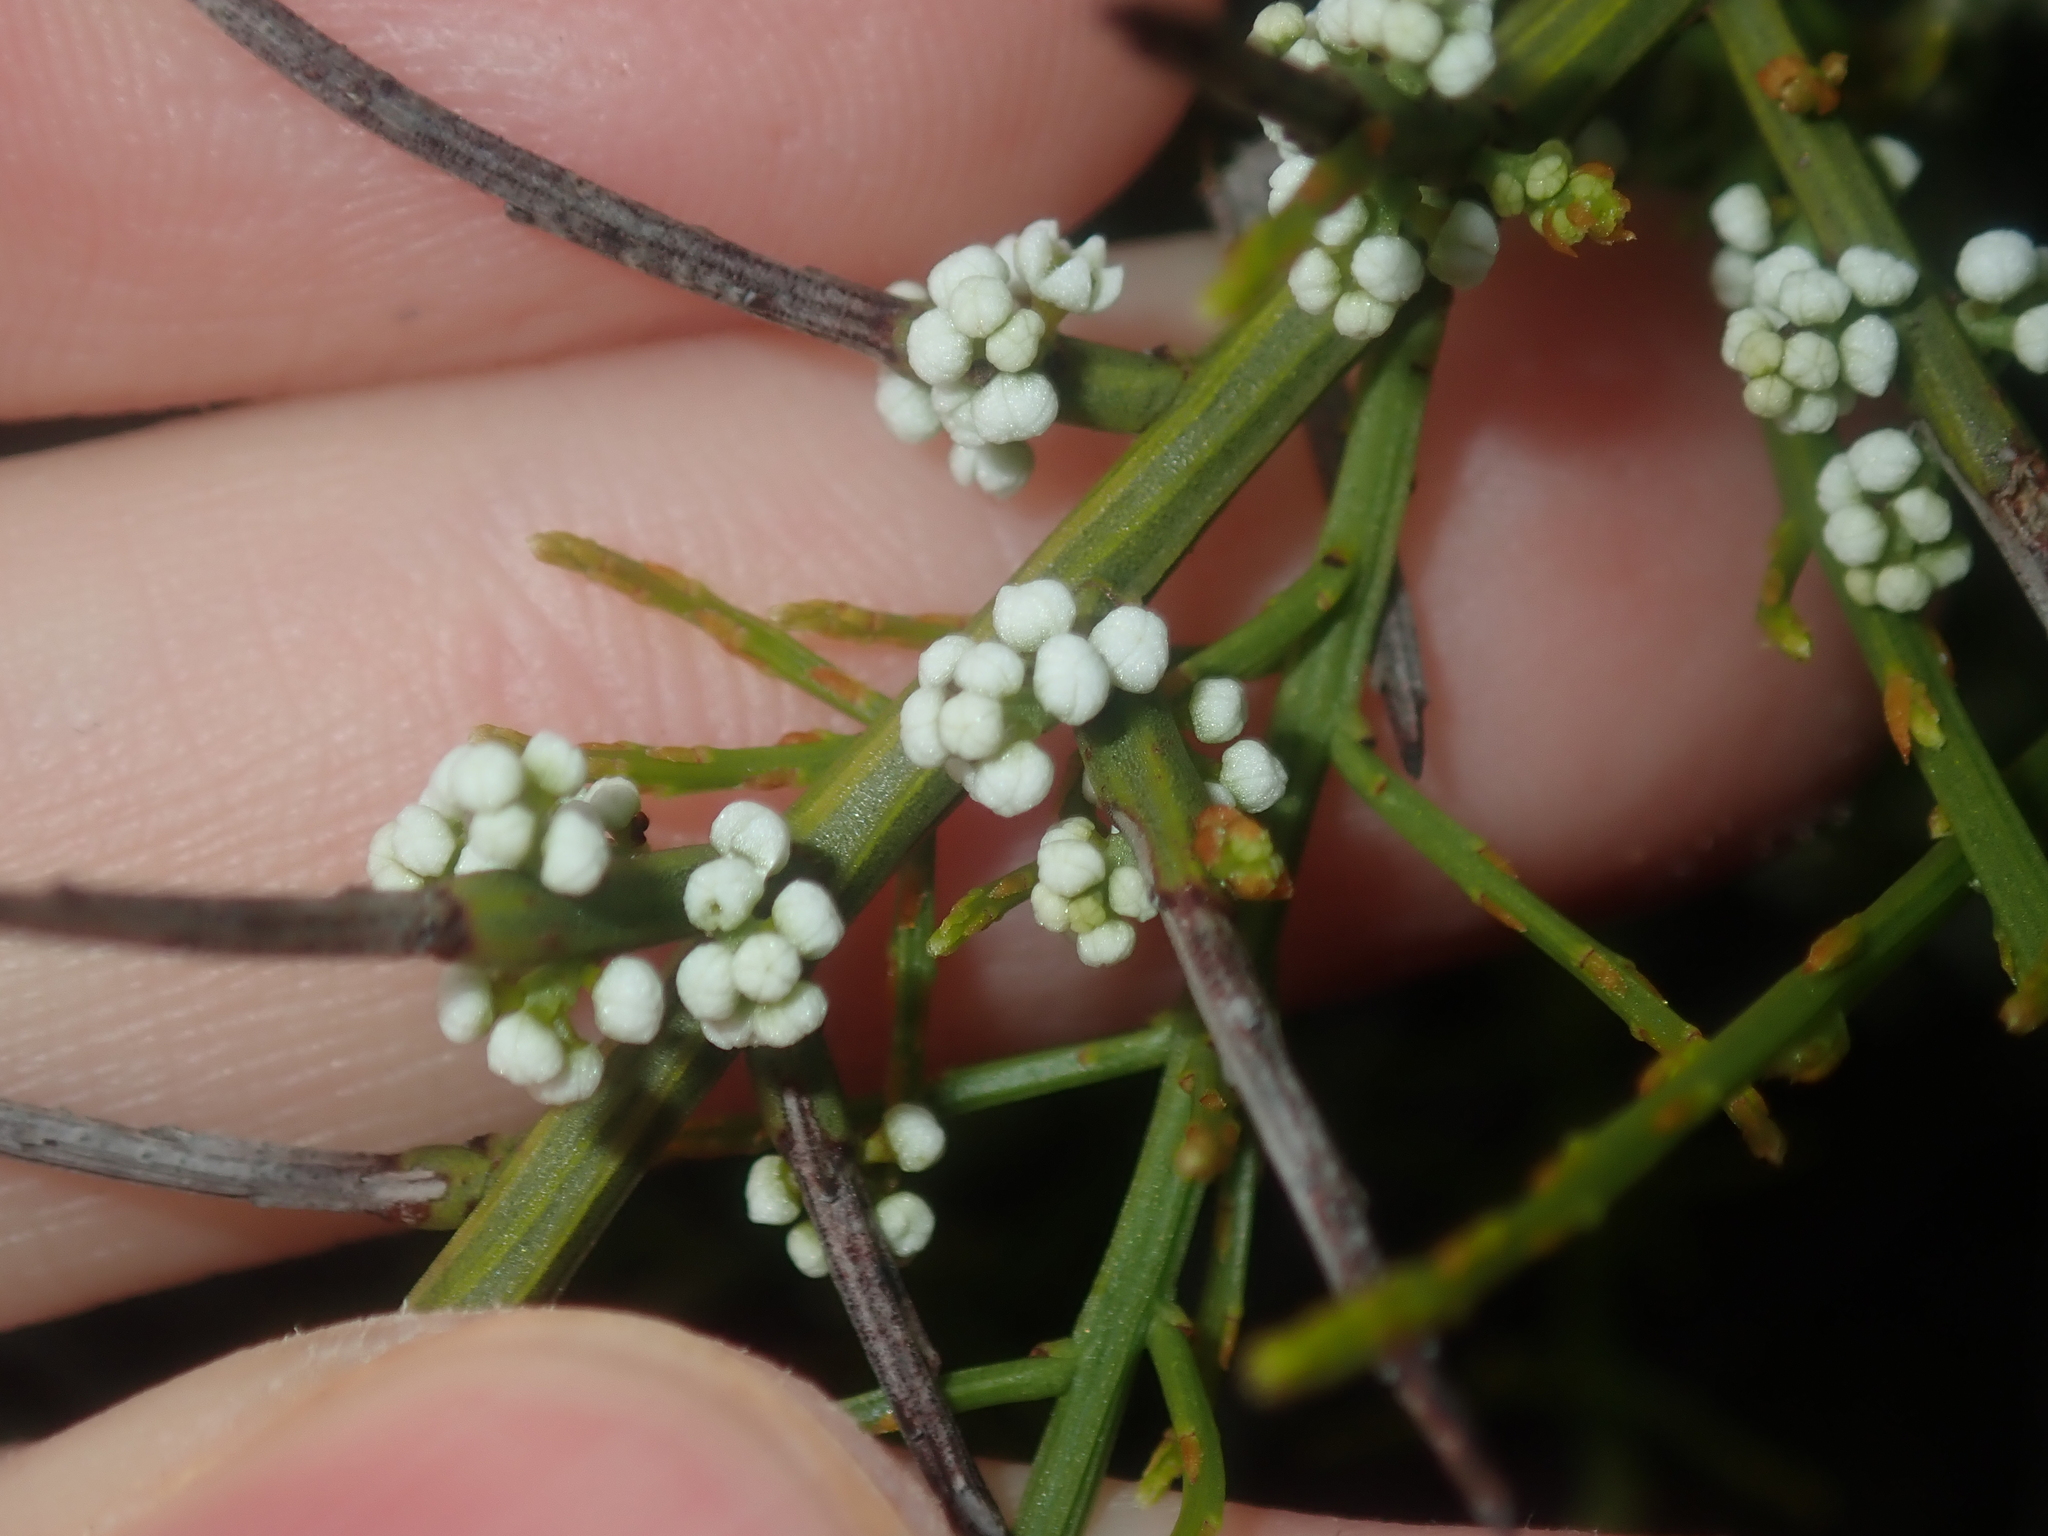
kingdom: Plantae
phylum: Tracheophyta
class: Magnoliopsida
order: Santalales
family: Amphorogynaceae
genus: Leptomeria
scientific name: Leptomeria pauciflora
